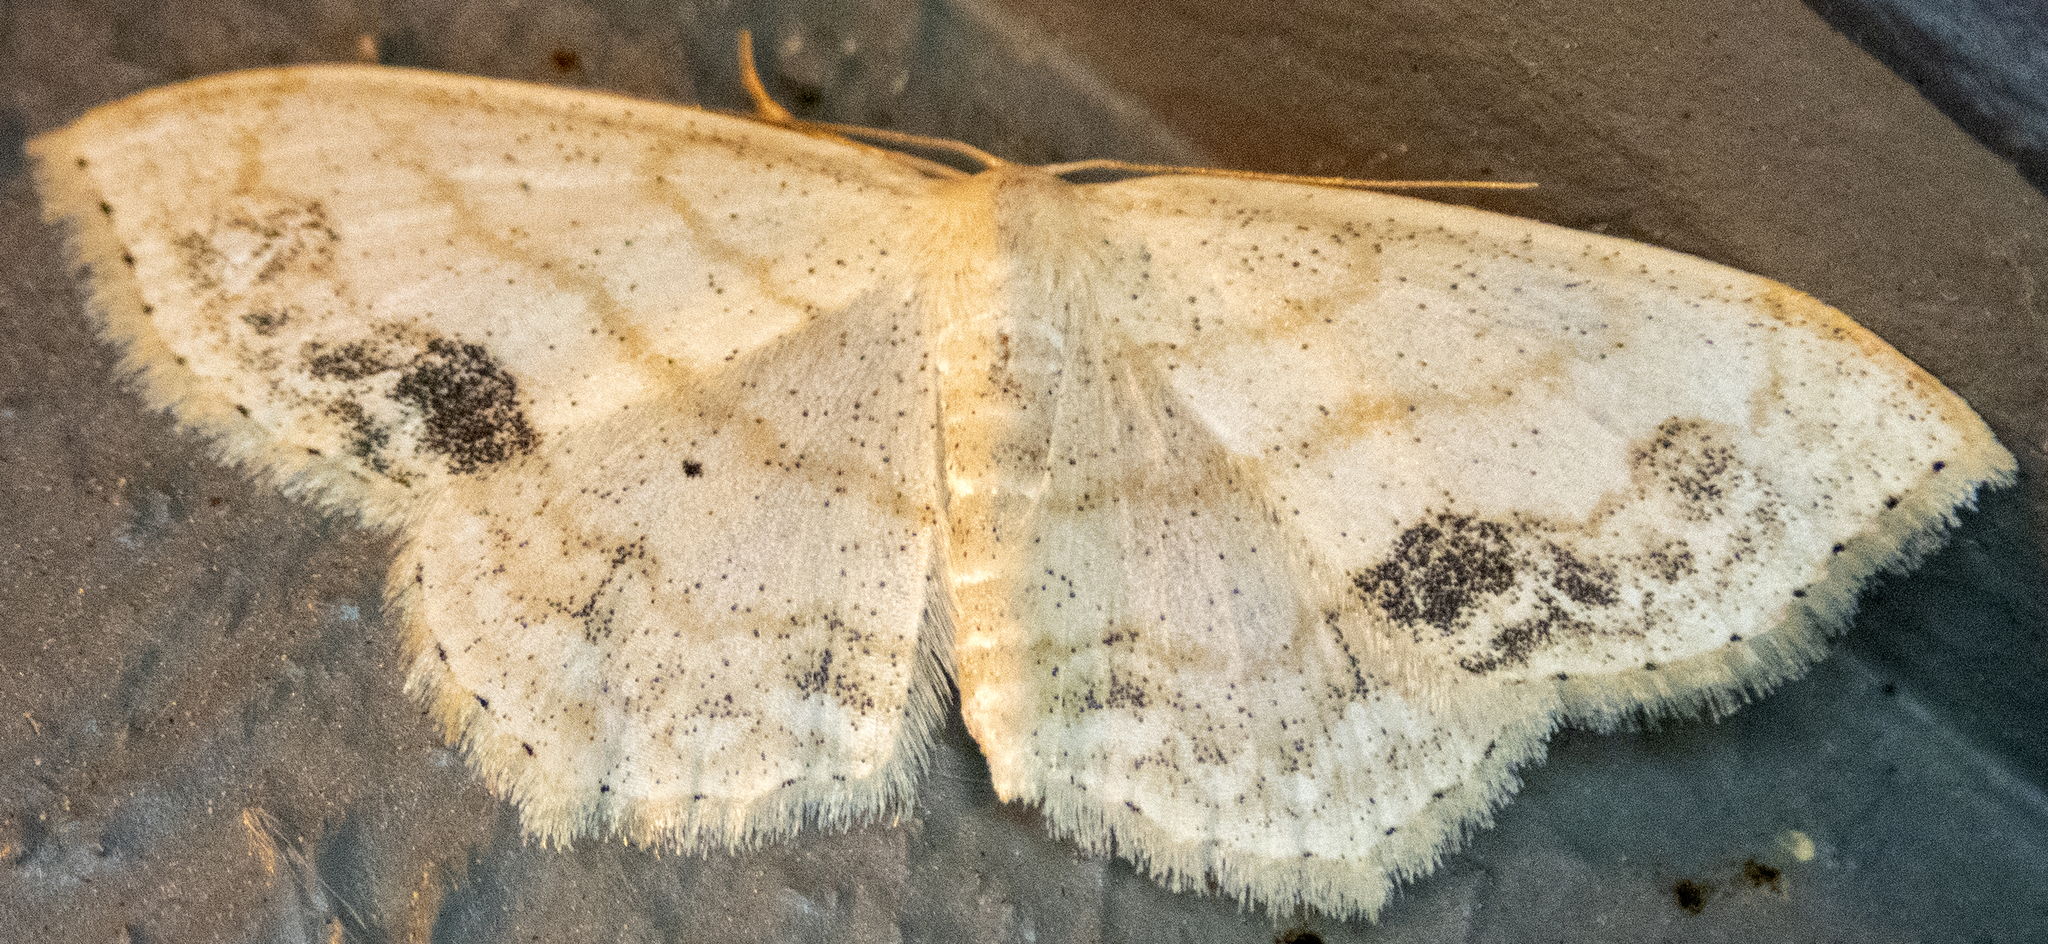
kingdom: Animalia
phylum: Arthropoda
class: Insecta
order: Lepidoptera
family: Geometridae
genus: Scopula
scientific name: Scopula limboundata
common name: Large lace border
